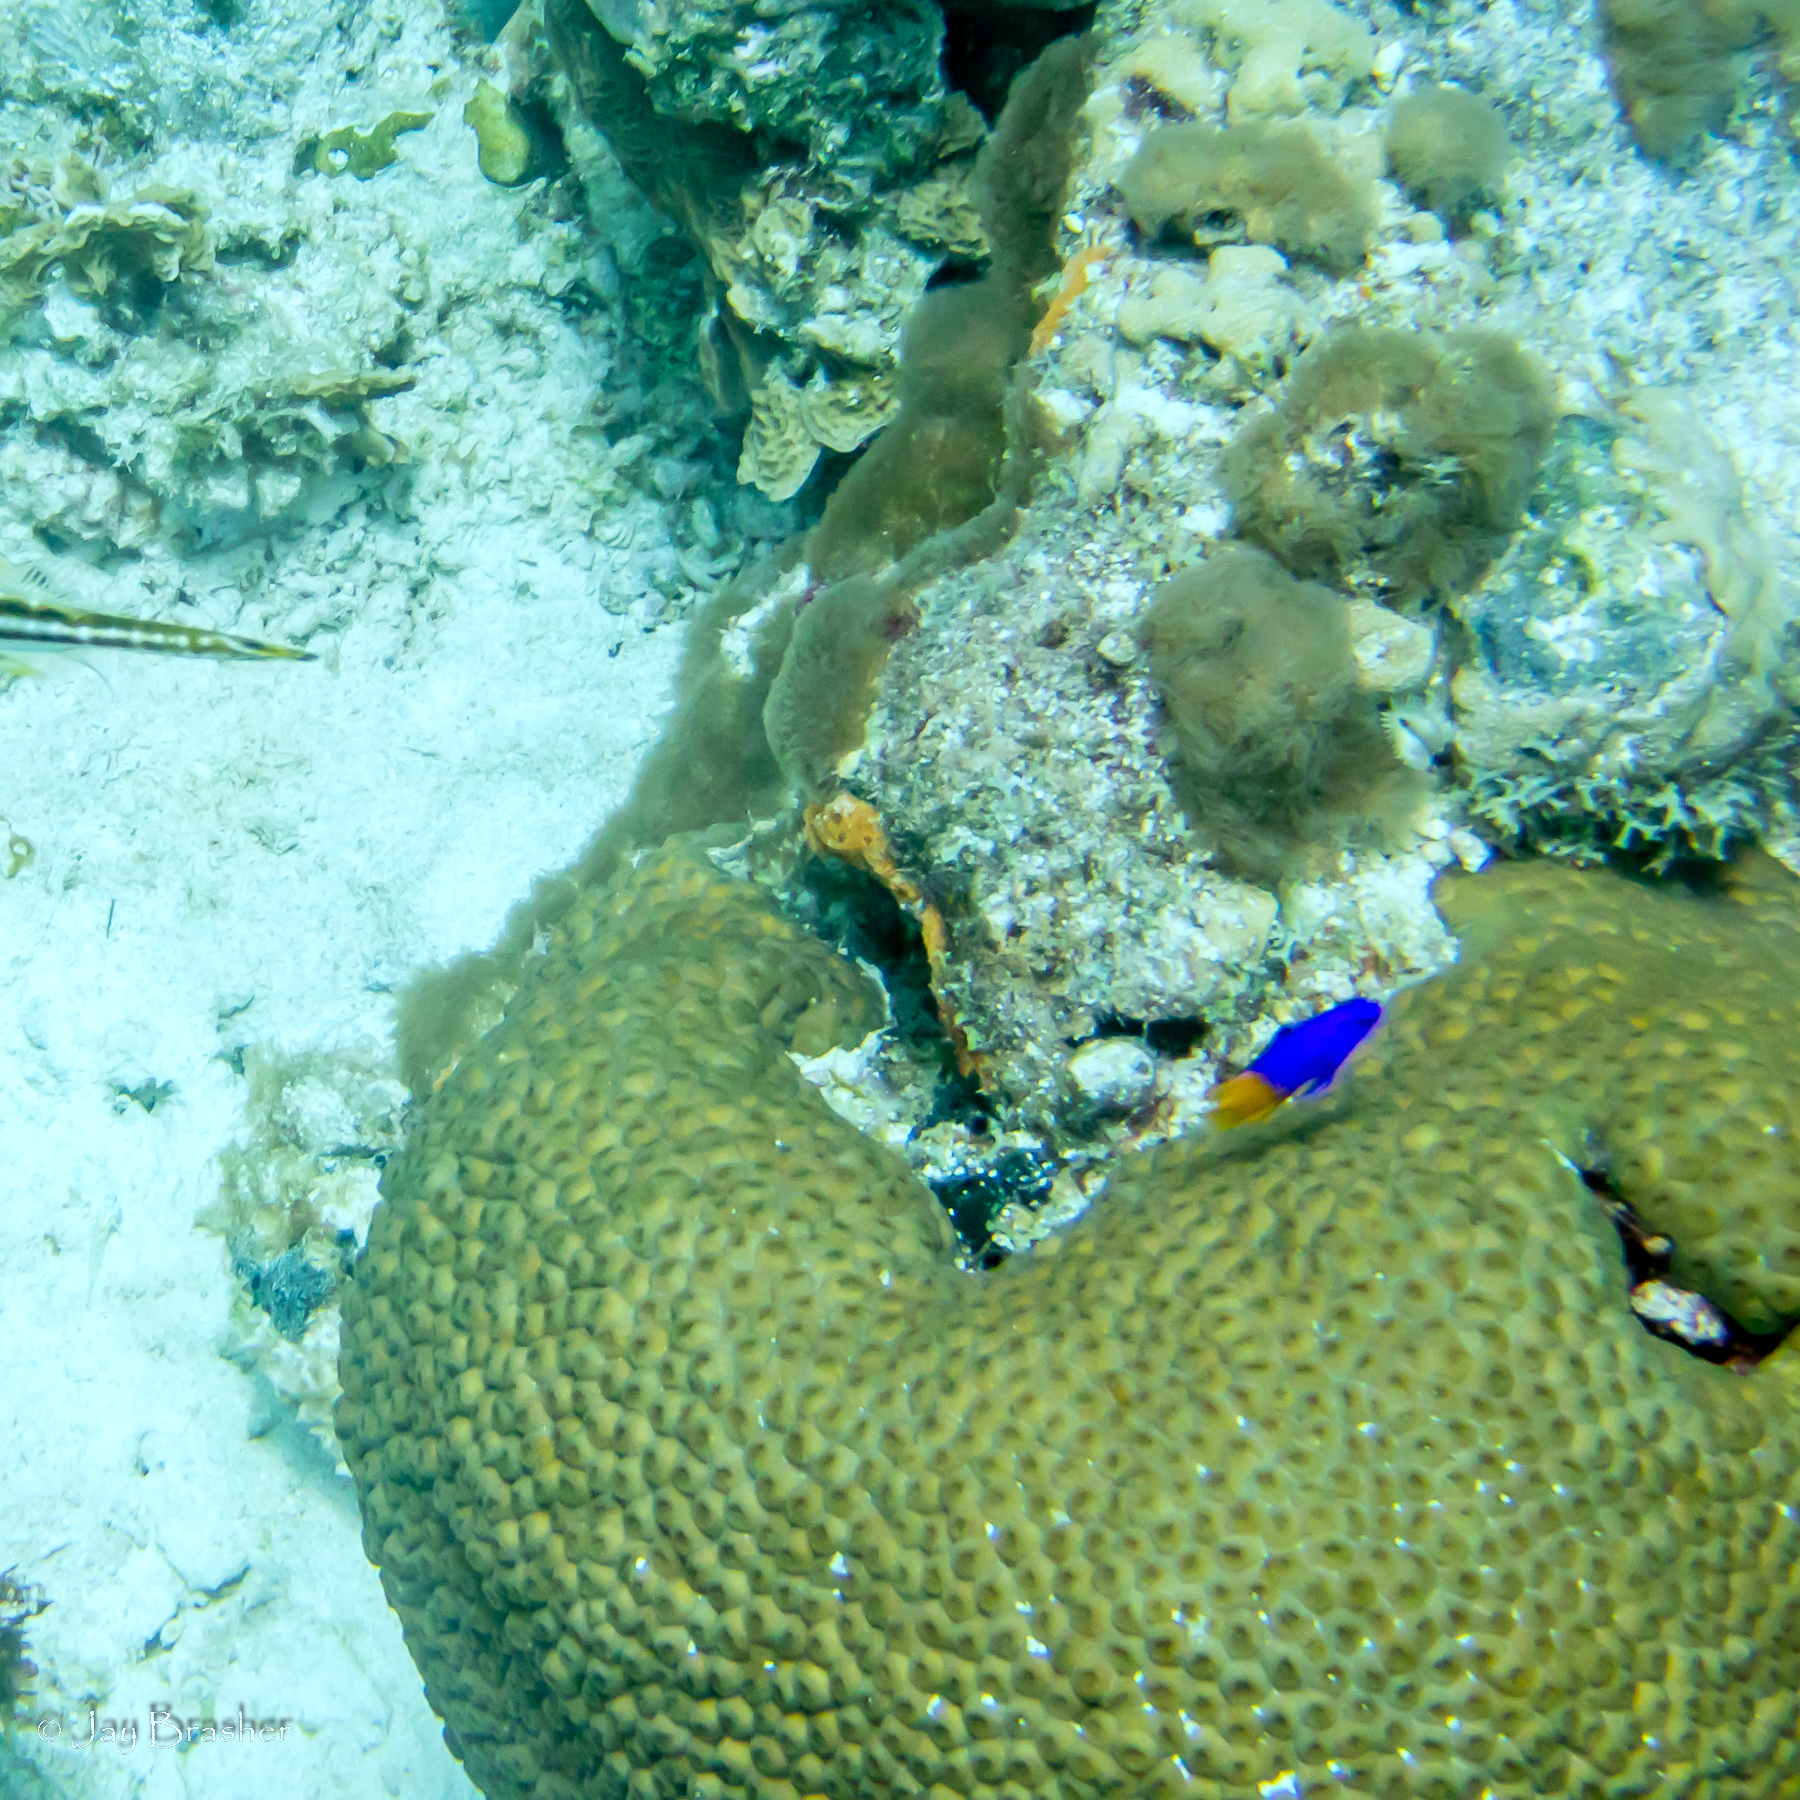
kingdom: Animalia
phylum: Cnidaria
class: Anthozoa
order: Scleractinia
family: Montastraeidae
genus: Montastraea
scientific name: Montastraea cavernosa
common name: Great star coral
